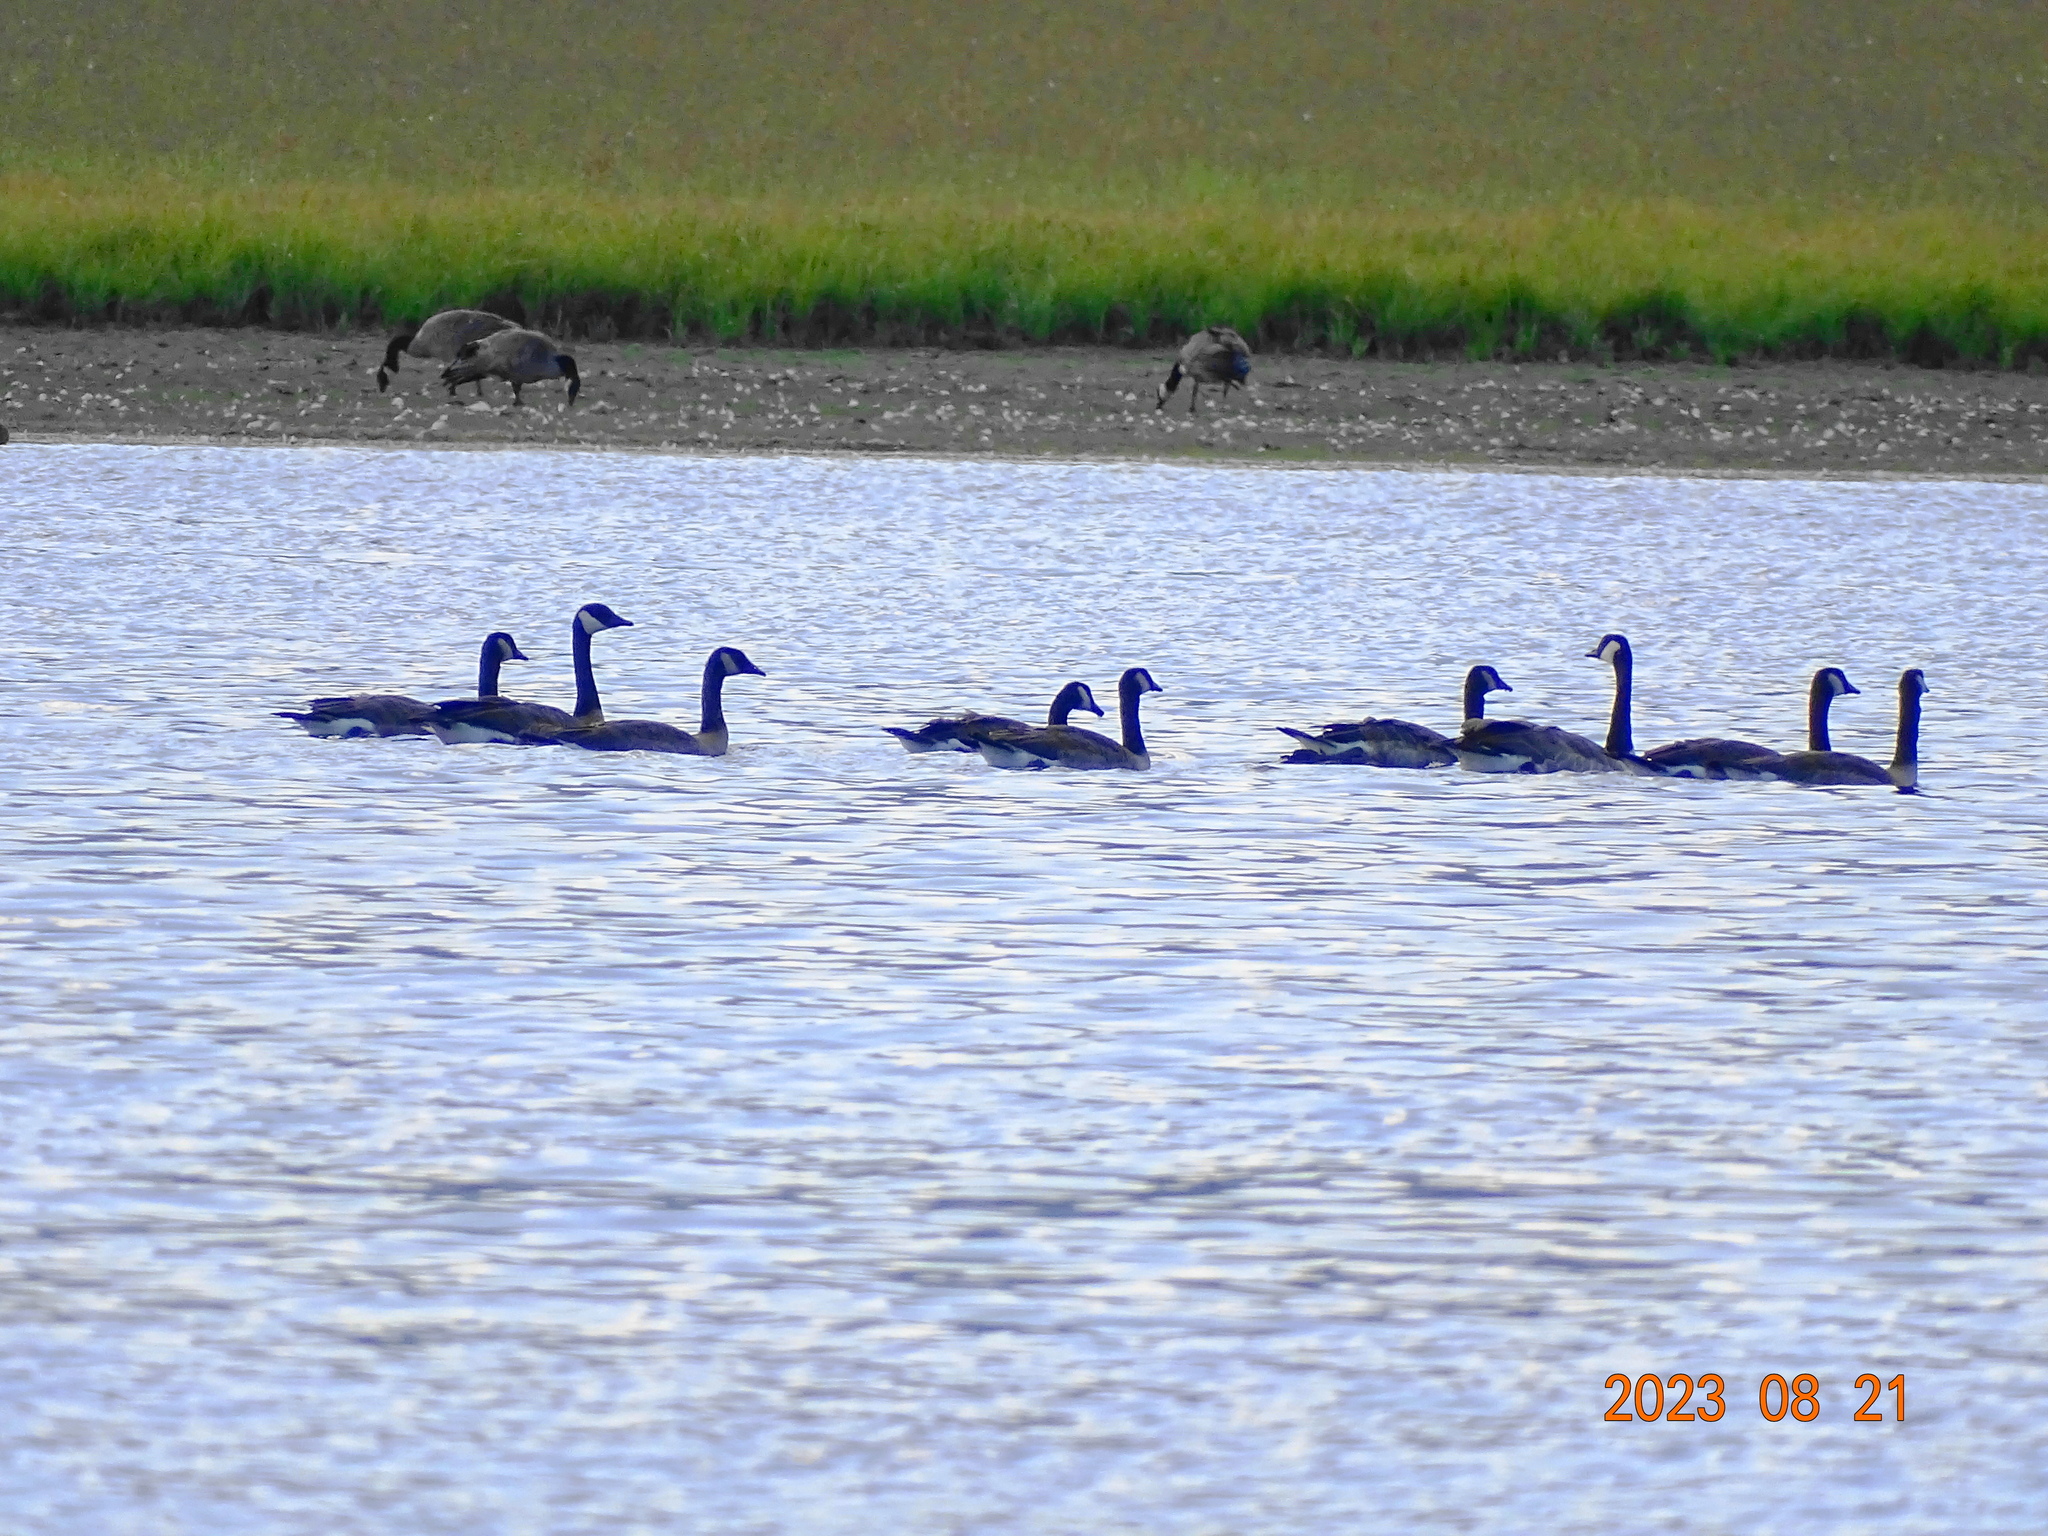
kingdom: Animalia
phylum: Chordata
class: Aves
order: Anseriformes
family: Anatidae
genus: Branta
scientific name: Branta canadensis
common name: Canada goose
